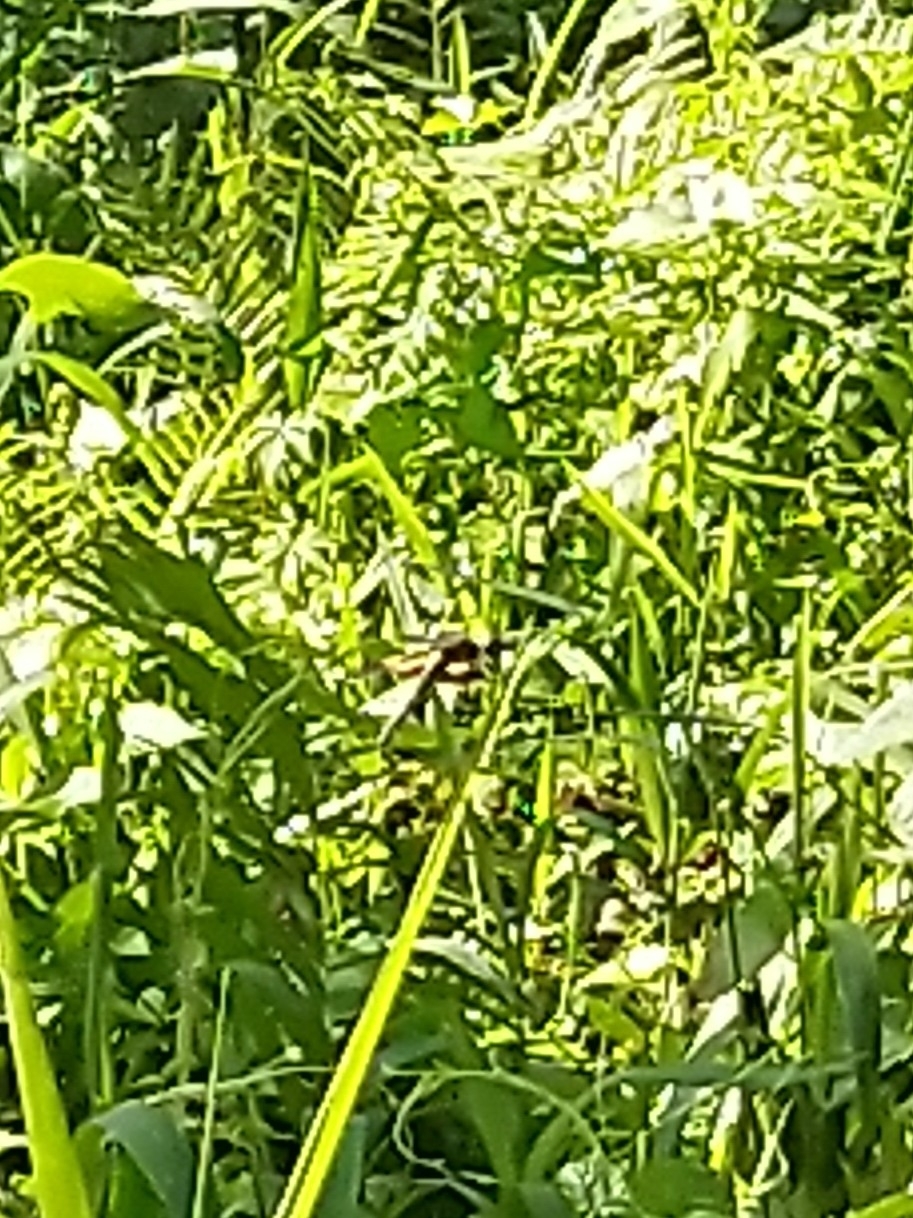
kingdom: Animalia
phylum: Arthropoda
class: Insecta
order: Odonata
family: Libellulidae
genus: Rhyothemis
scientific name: Rhyothemis variegata
